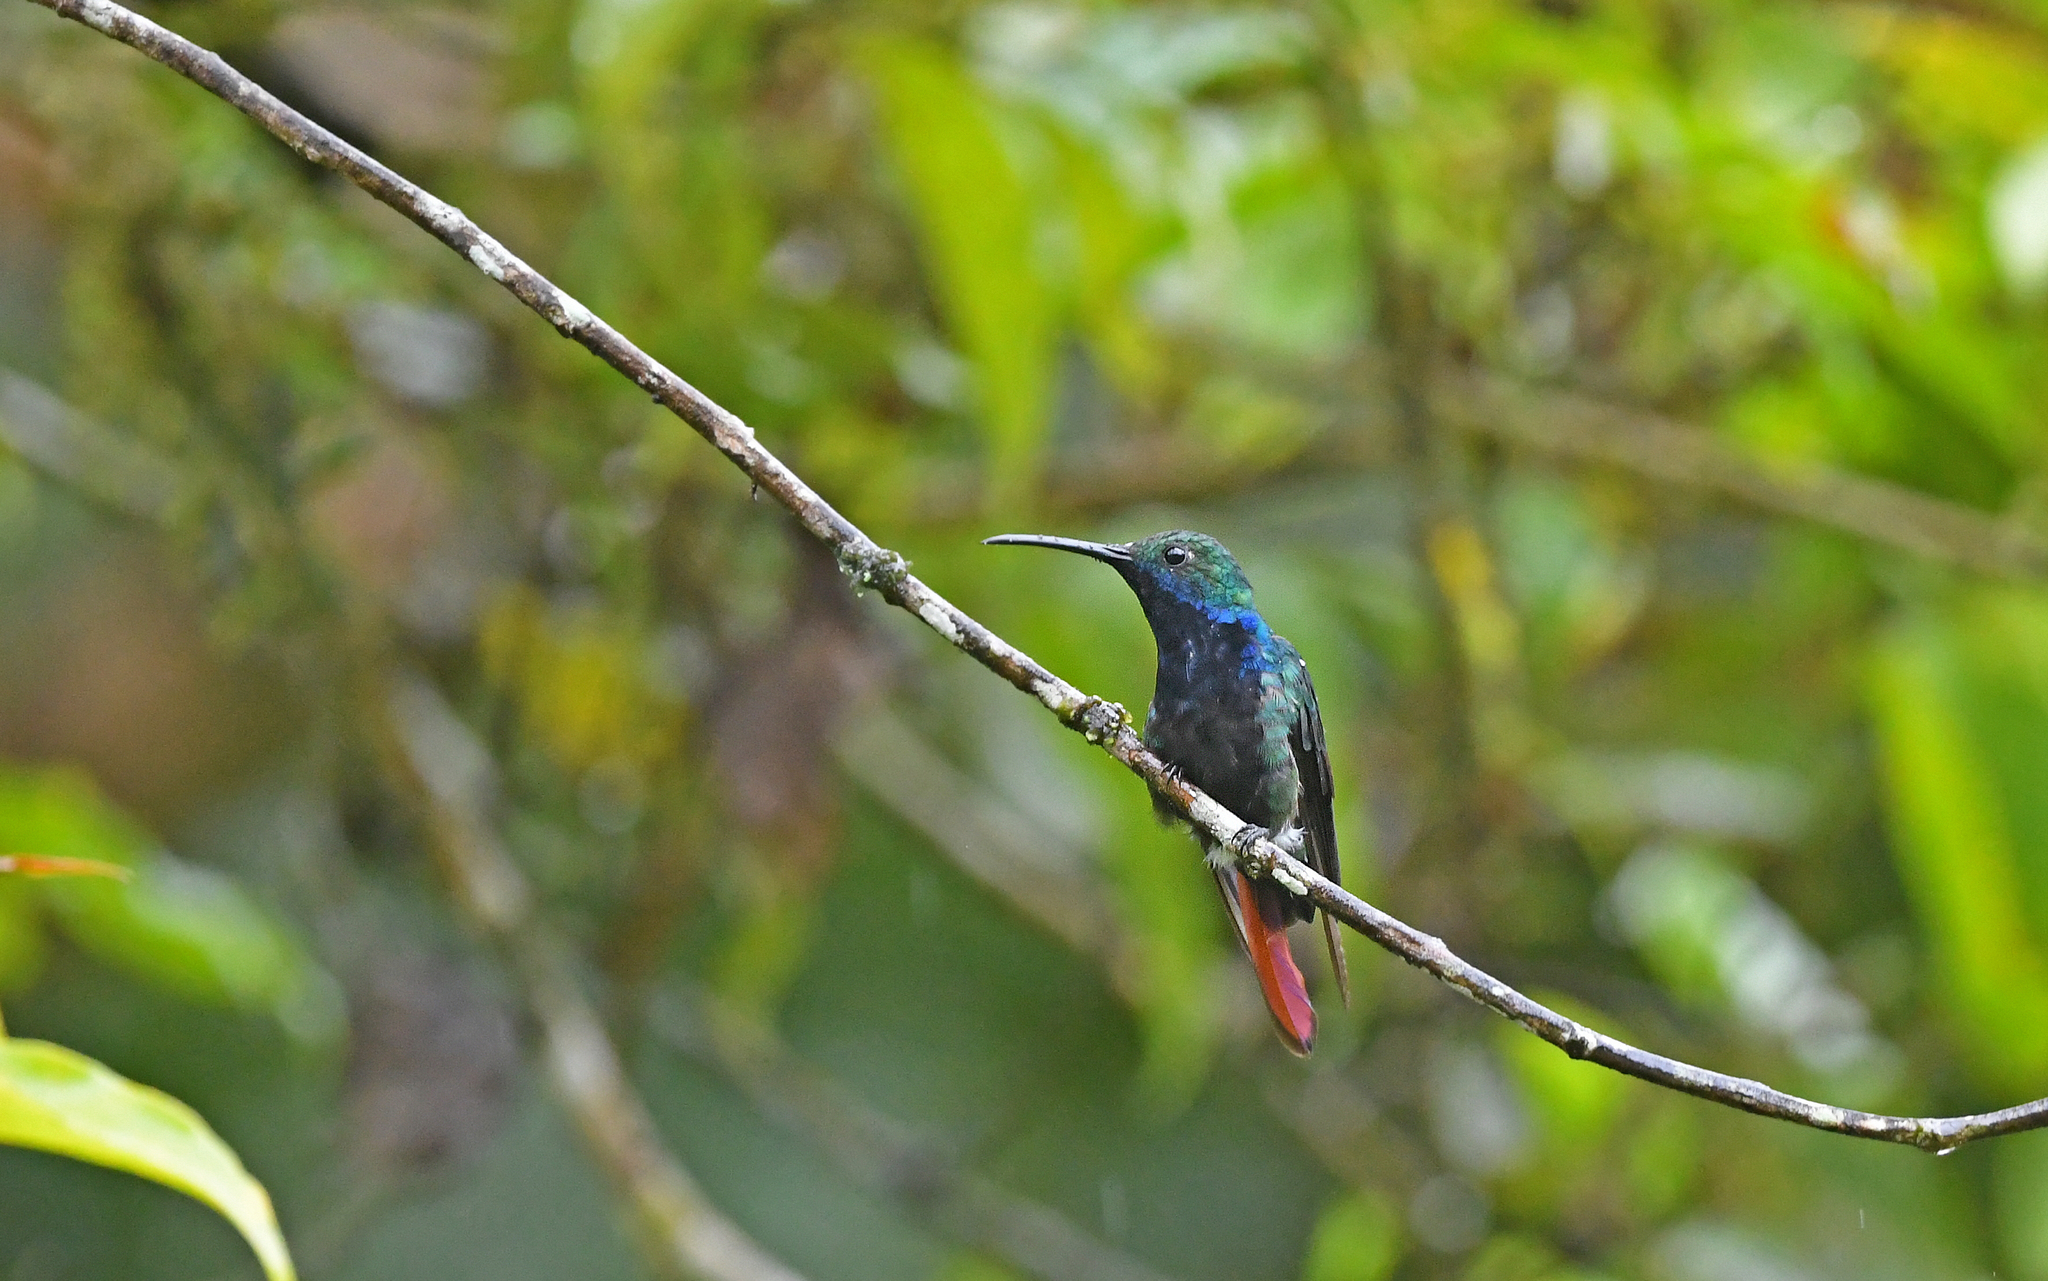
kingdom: Animalia
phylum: Chordata
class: Aves
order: Apodiformes
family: Trochilidae
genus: Anthracothorax
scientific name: Anthracothorax nigricollis
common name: Black-throated mango
